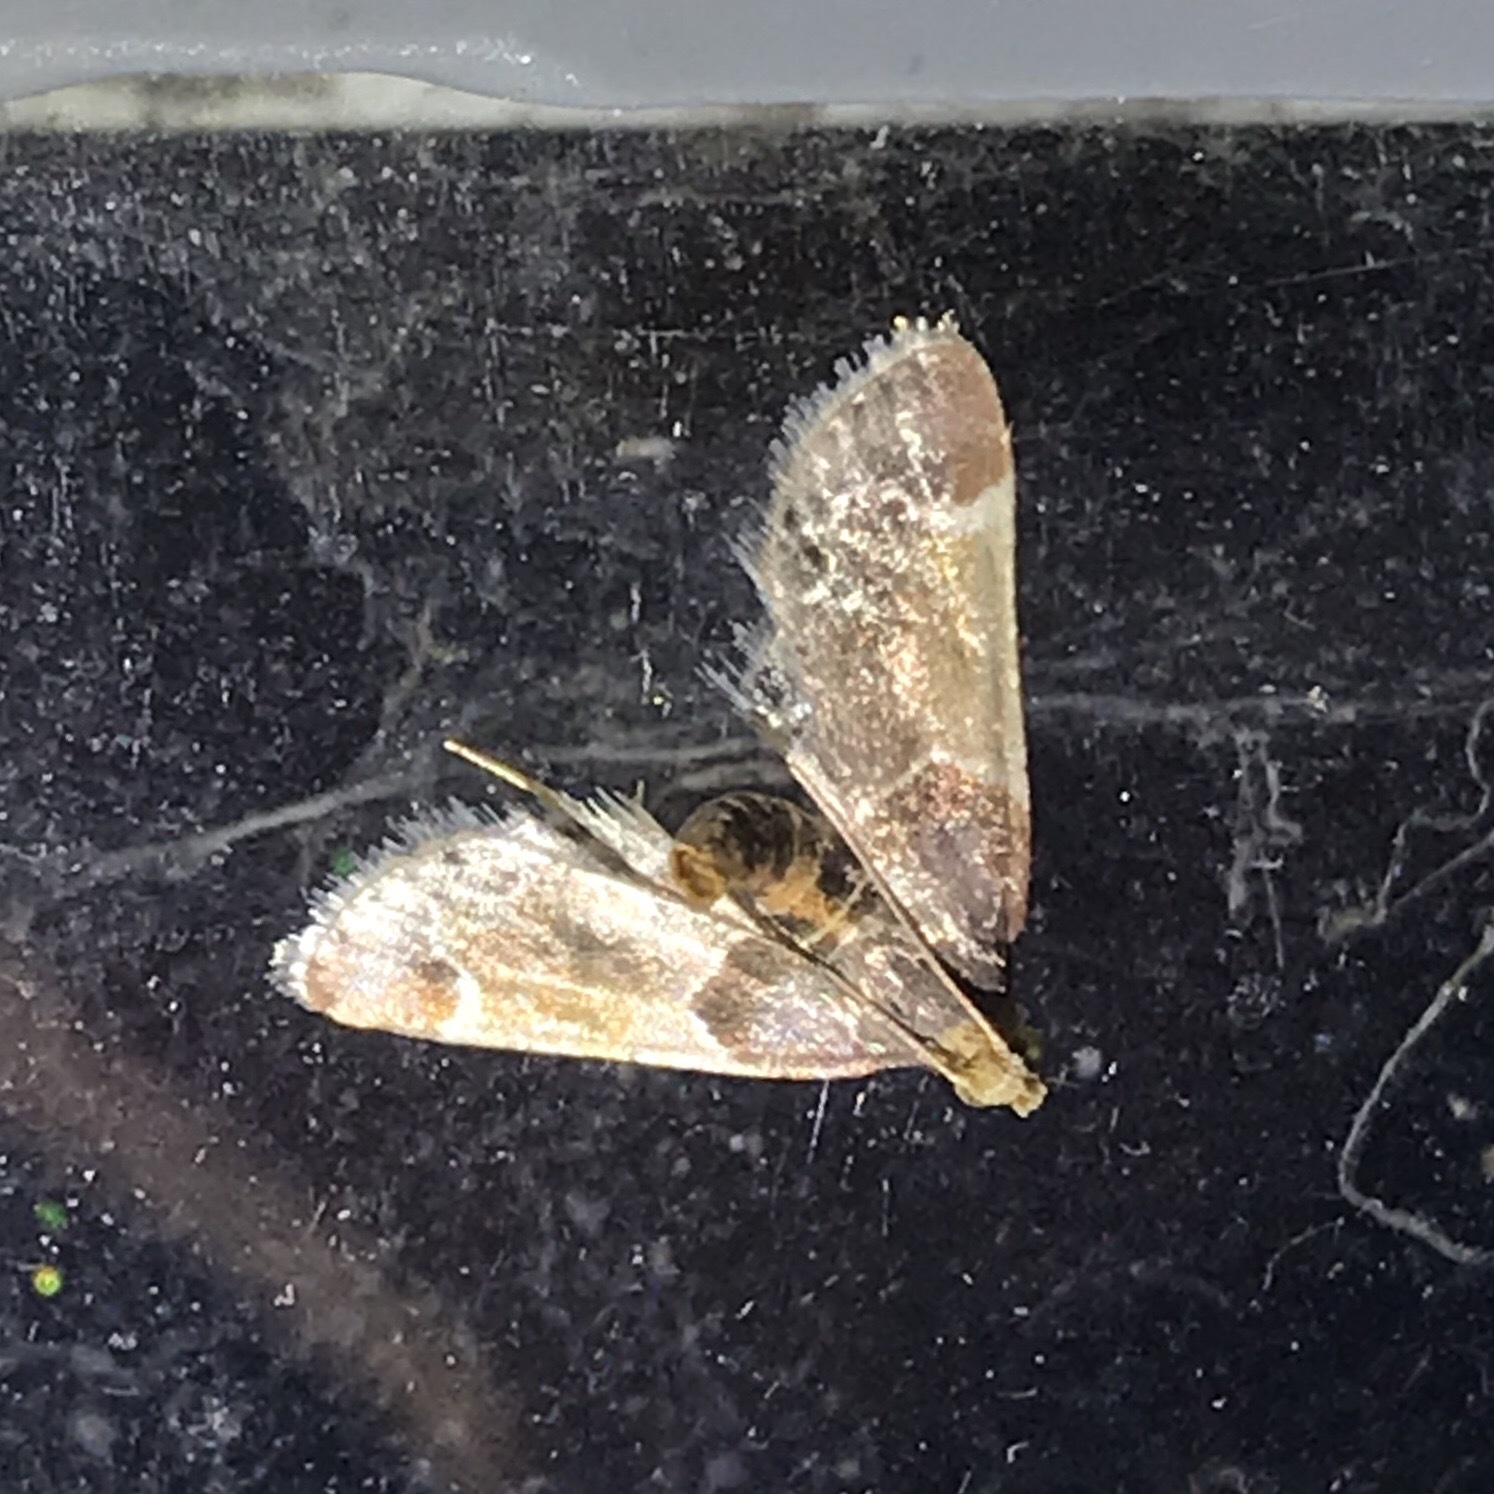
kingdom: Animalia
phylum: Arthropoda
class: Insecta
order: Lepidoptera
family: Pyralidae
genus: Pyralis
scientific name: Pyralis farinalis
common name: Meal moth
